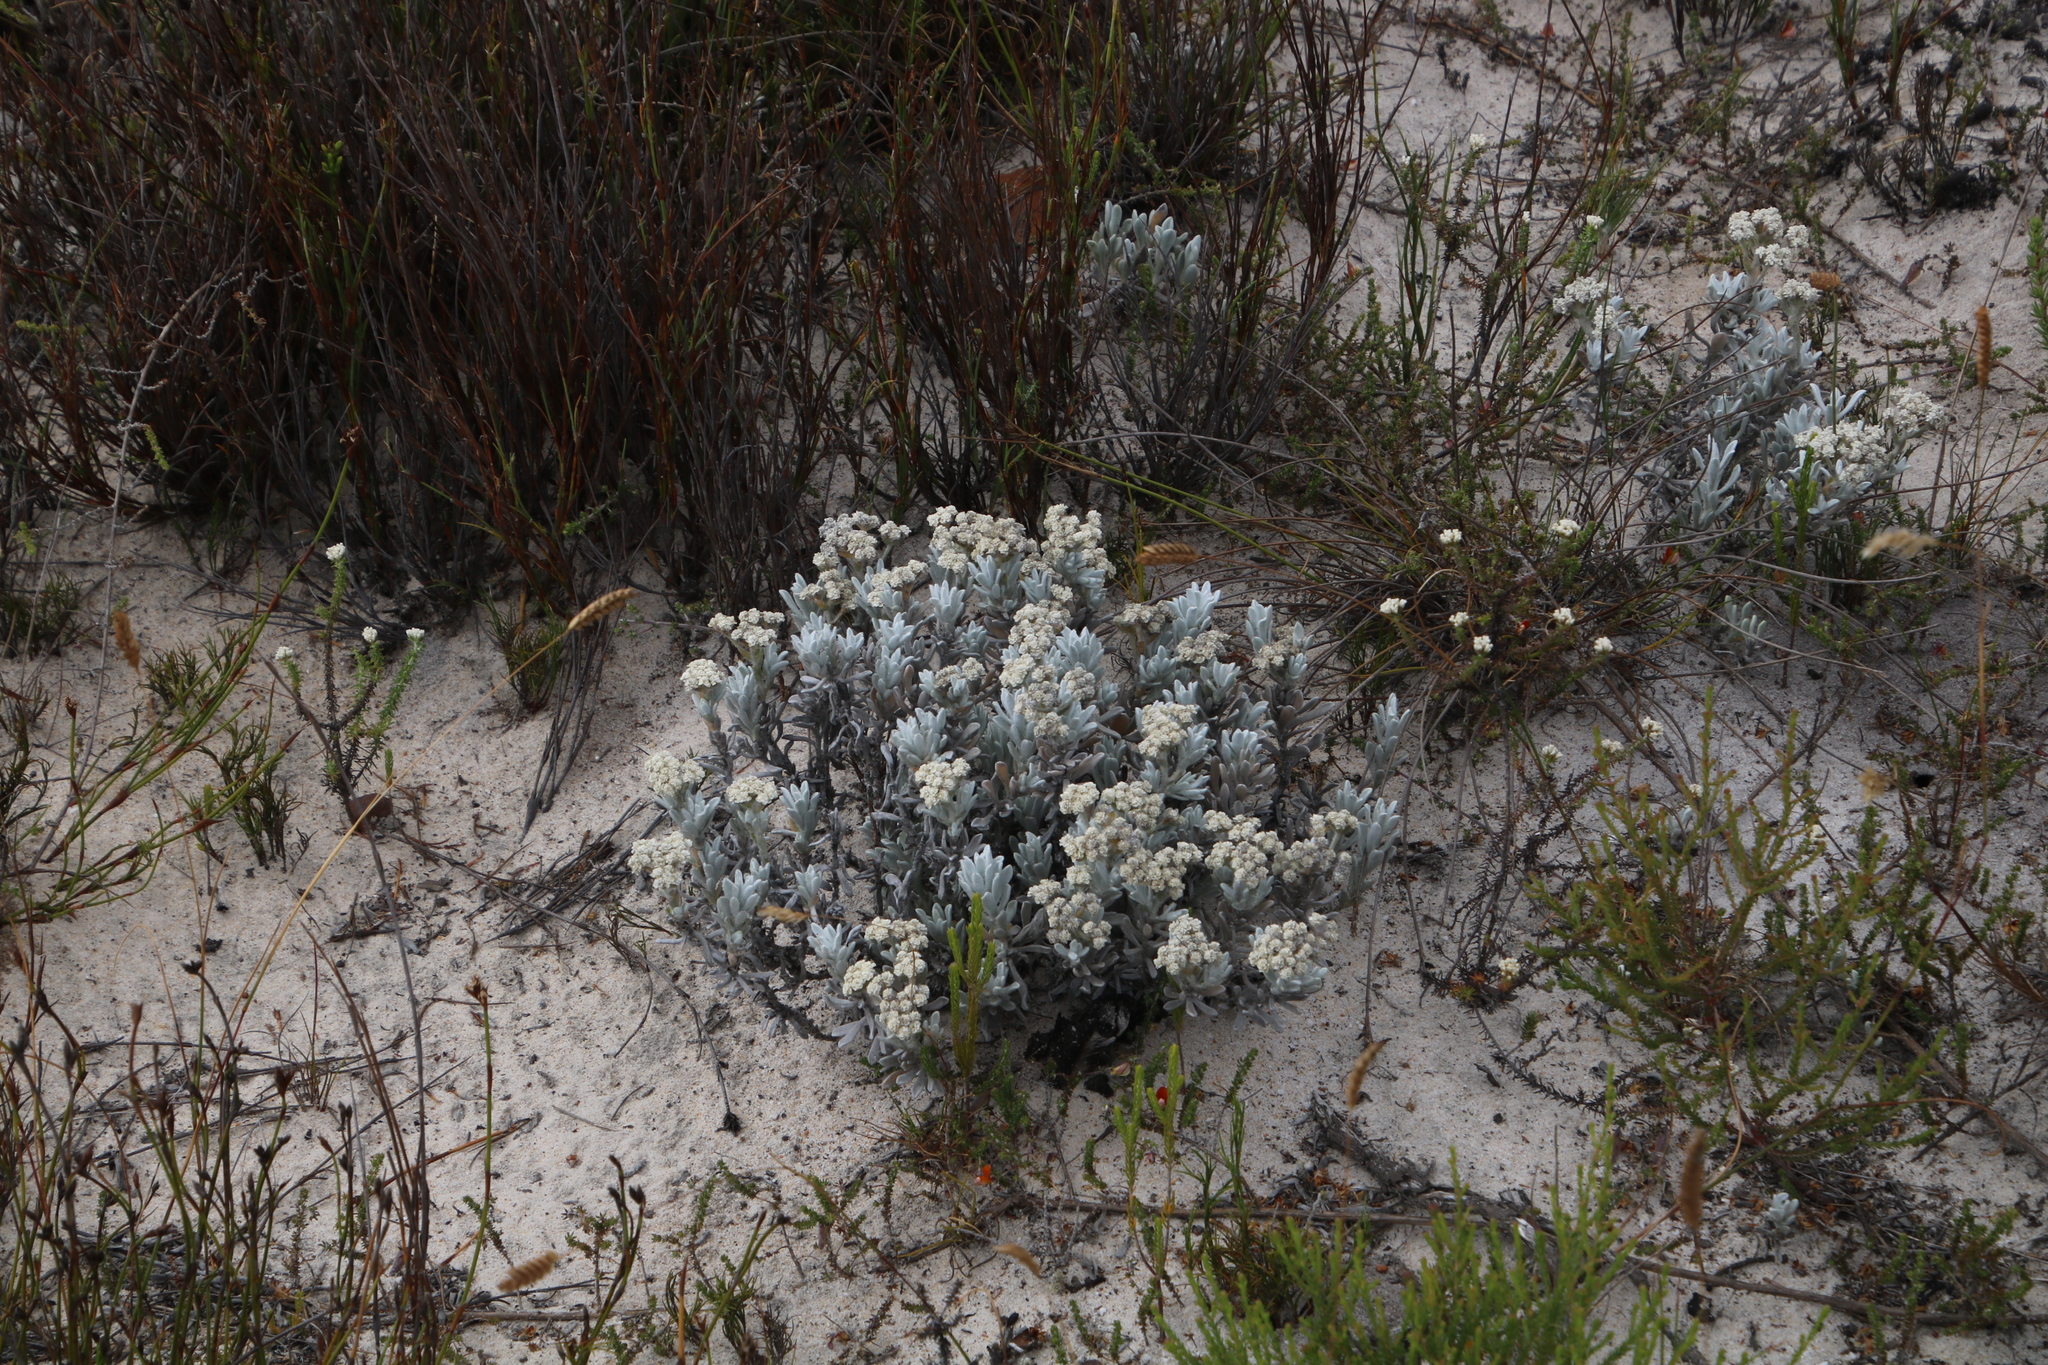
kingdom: Plantae
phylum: Tracheophyta
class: Magnoliopsida
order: Asterales
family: Asteraceae
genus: Petalacte
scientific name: Petalacte coronata
